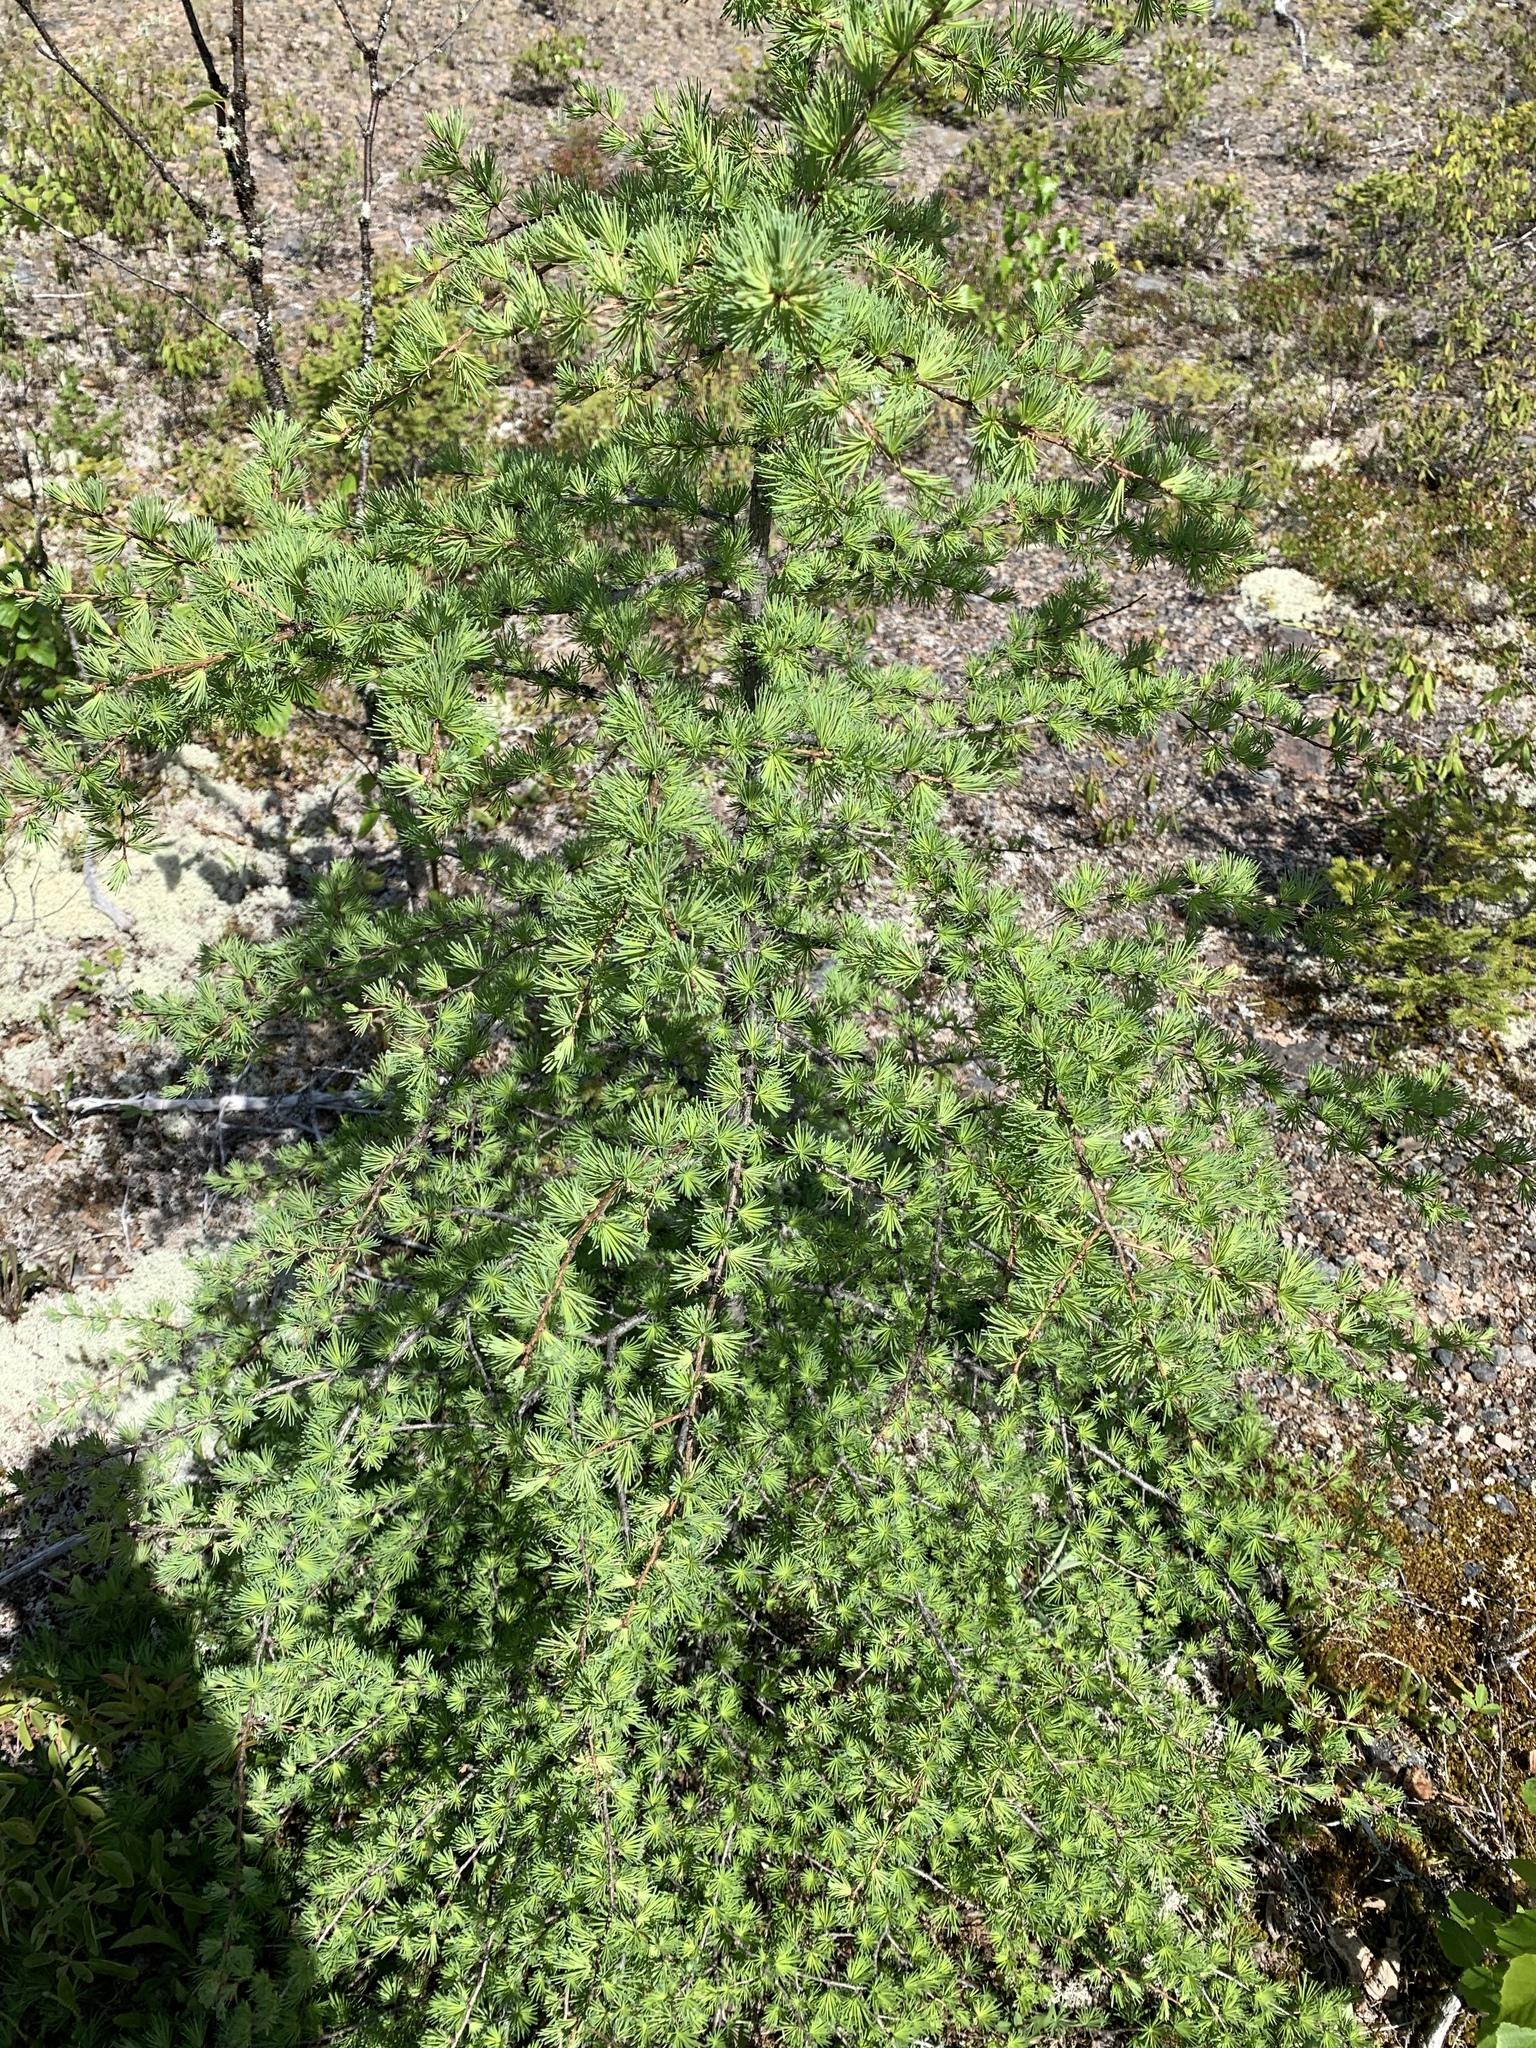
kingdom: Plantae
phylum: Tracheophyta
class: Pinopsida
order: Pinales
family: Pinaceae
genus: Larix
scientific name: Larix laricina
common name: American larch
